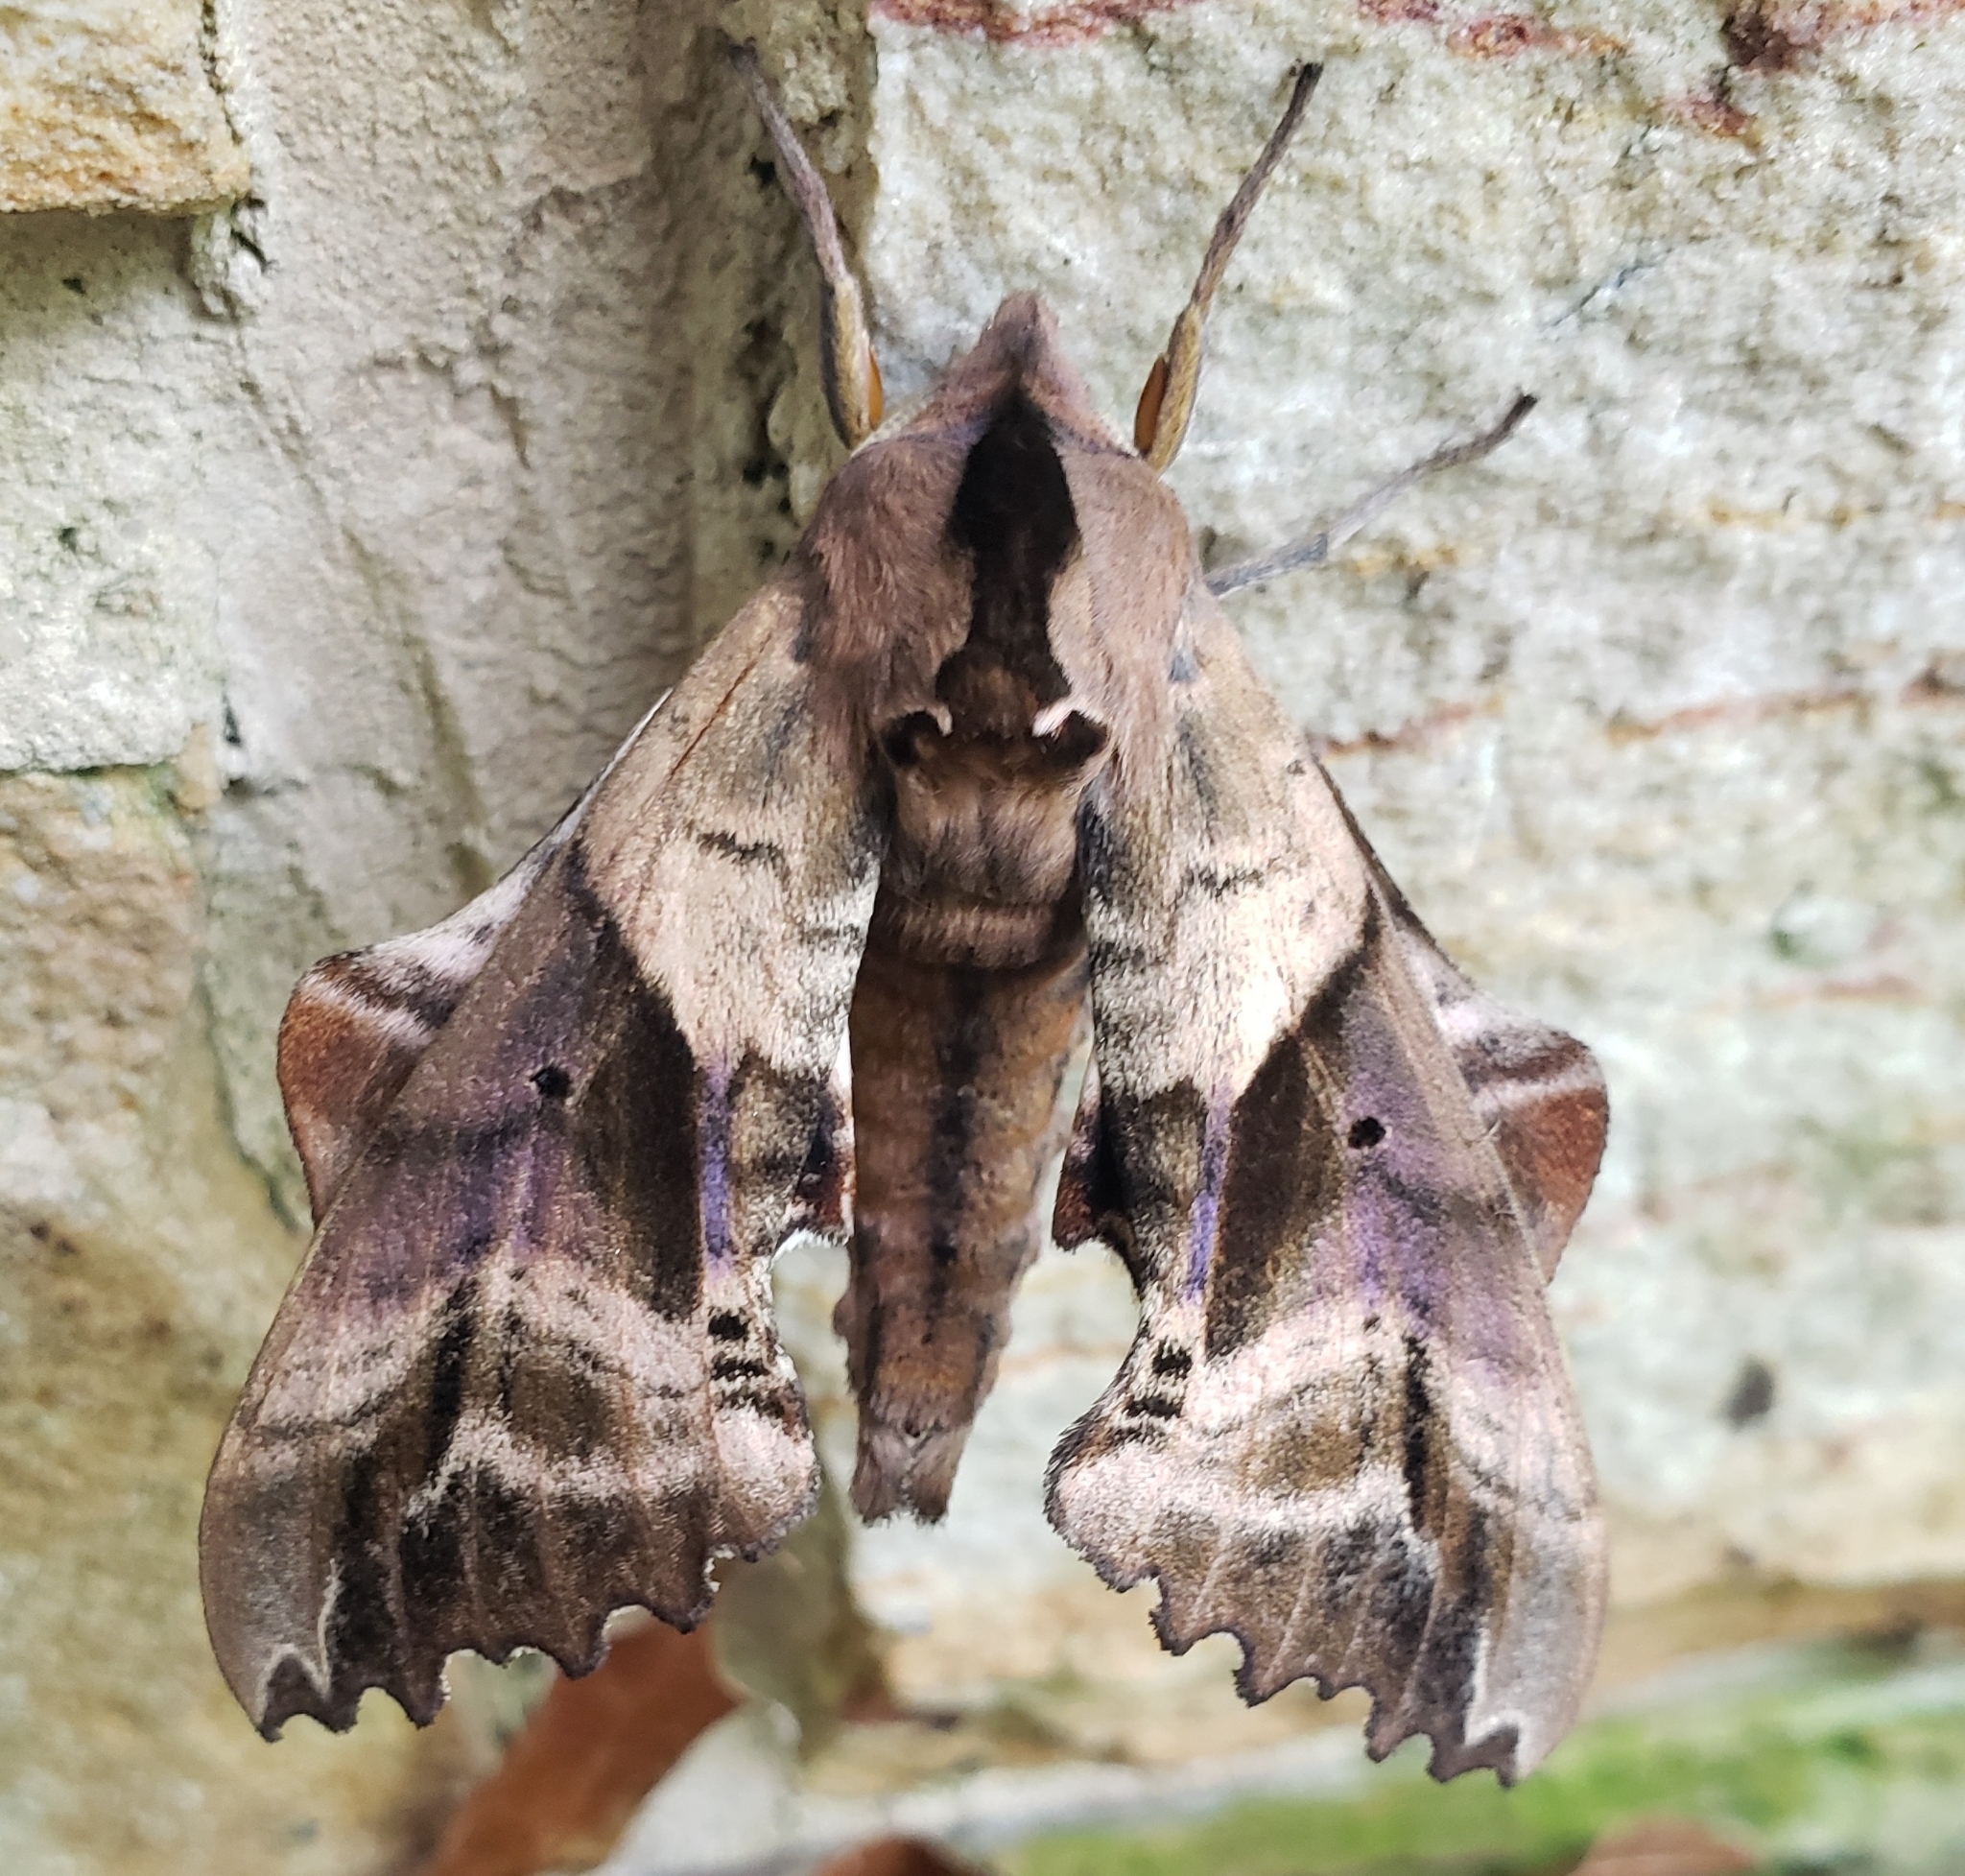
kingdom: Animalia
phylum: Arthropoda
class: Insecta
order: Lepidoptera
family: Sphingidae
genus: Paonias
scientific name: Paonias excaecata
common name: Blind-eyed sphinx
